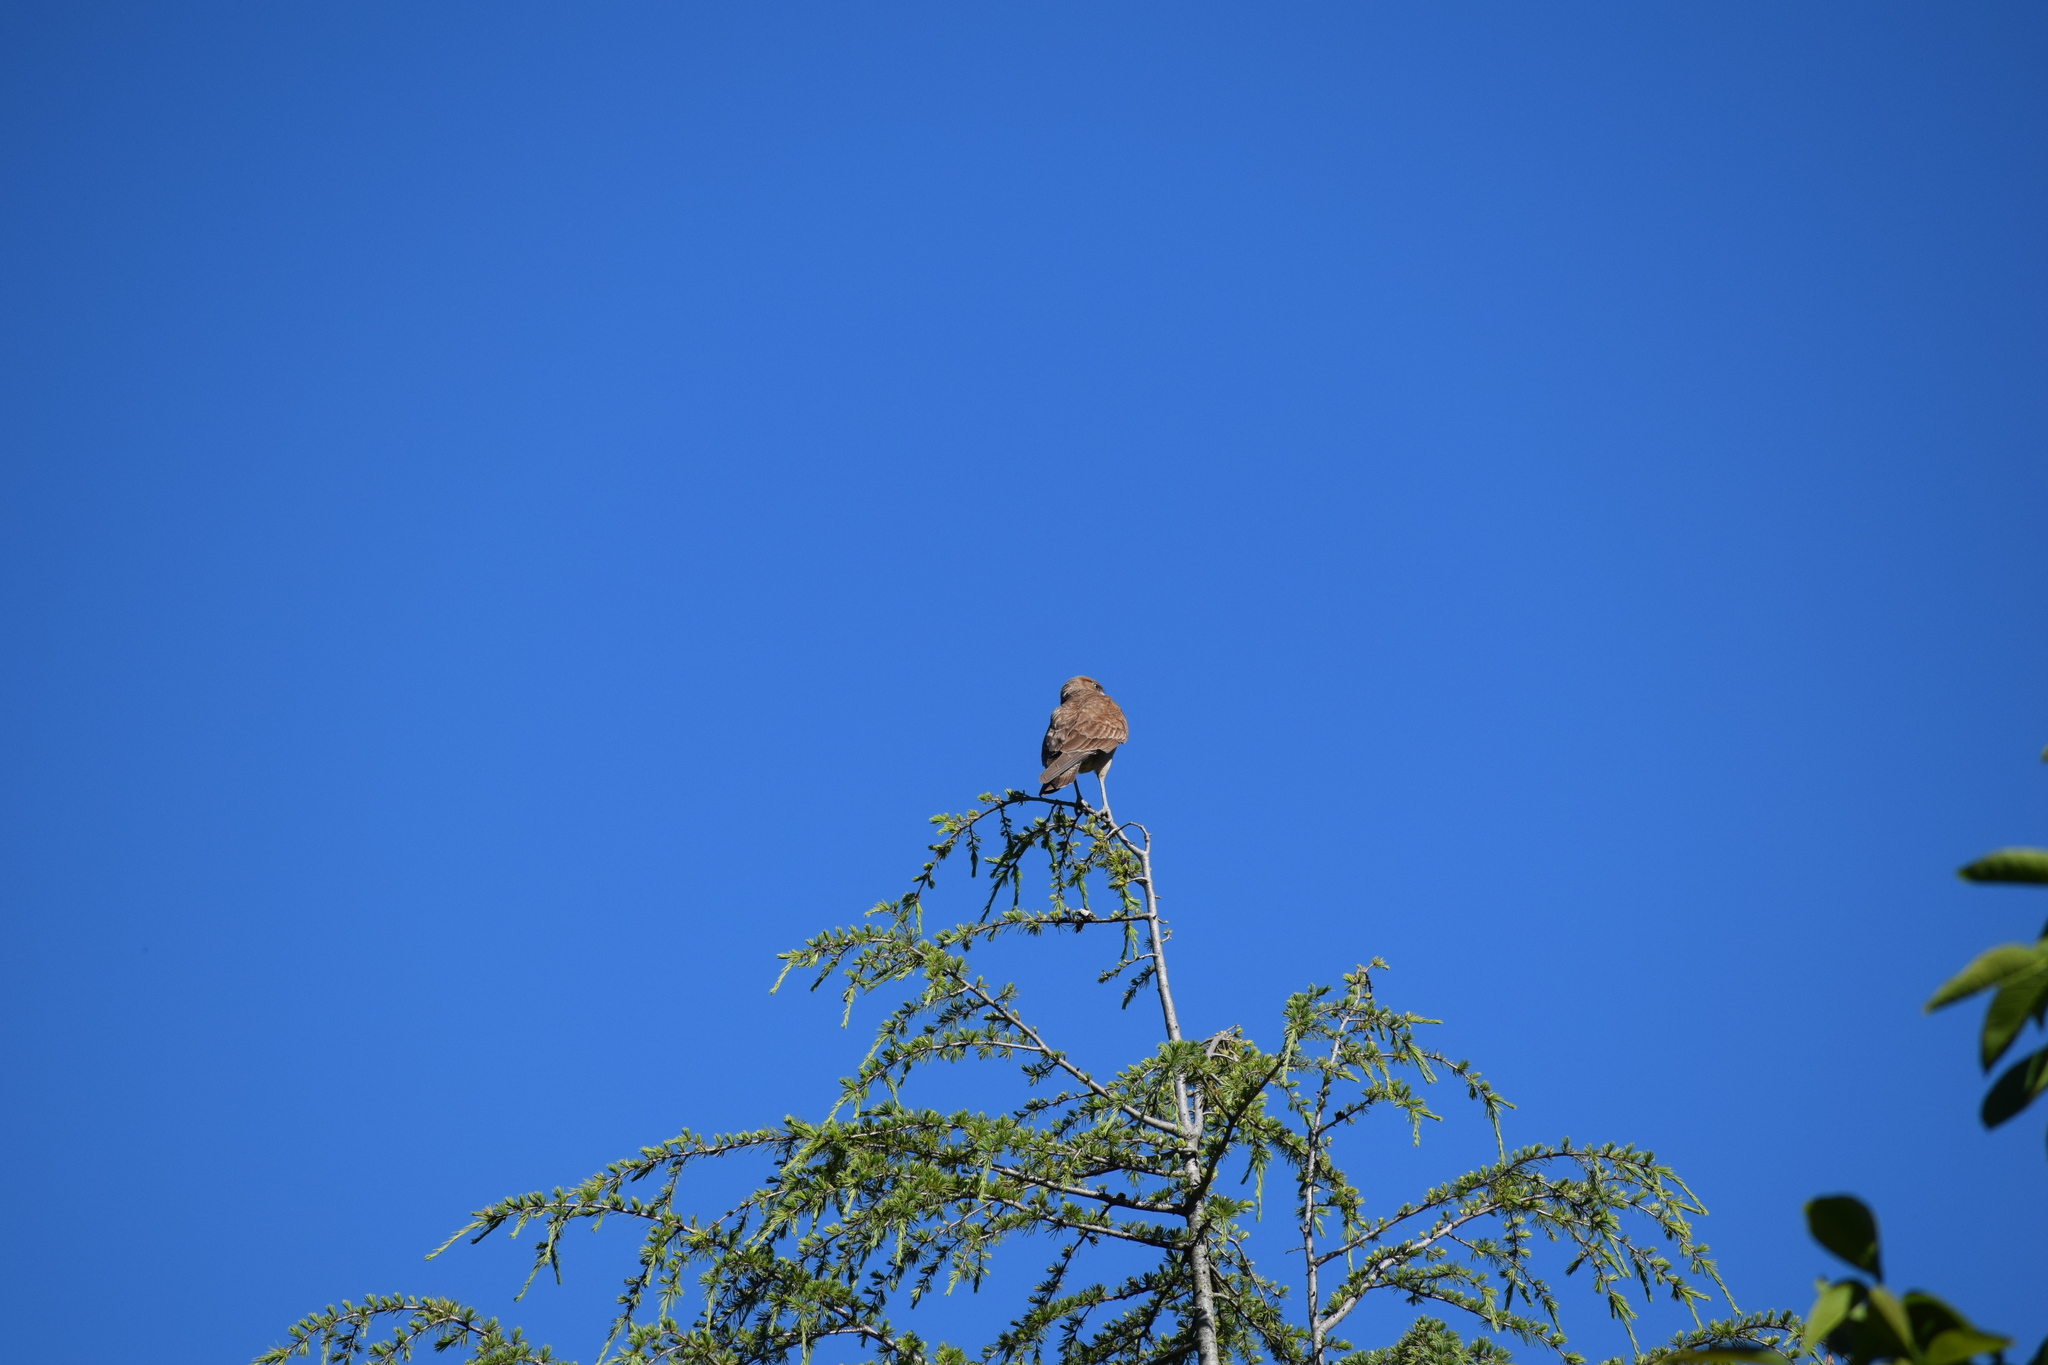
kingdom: Animalia
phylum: Chordata
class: Aves
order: Falconiformes
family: Falconidae
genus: Daptrius
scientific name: Daptrius
